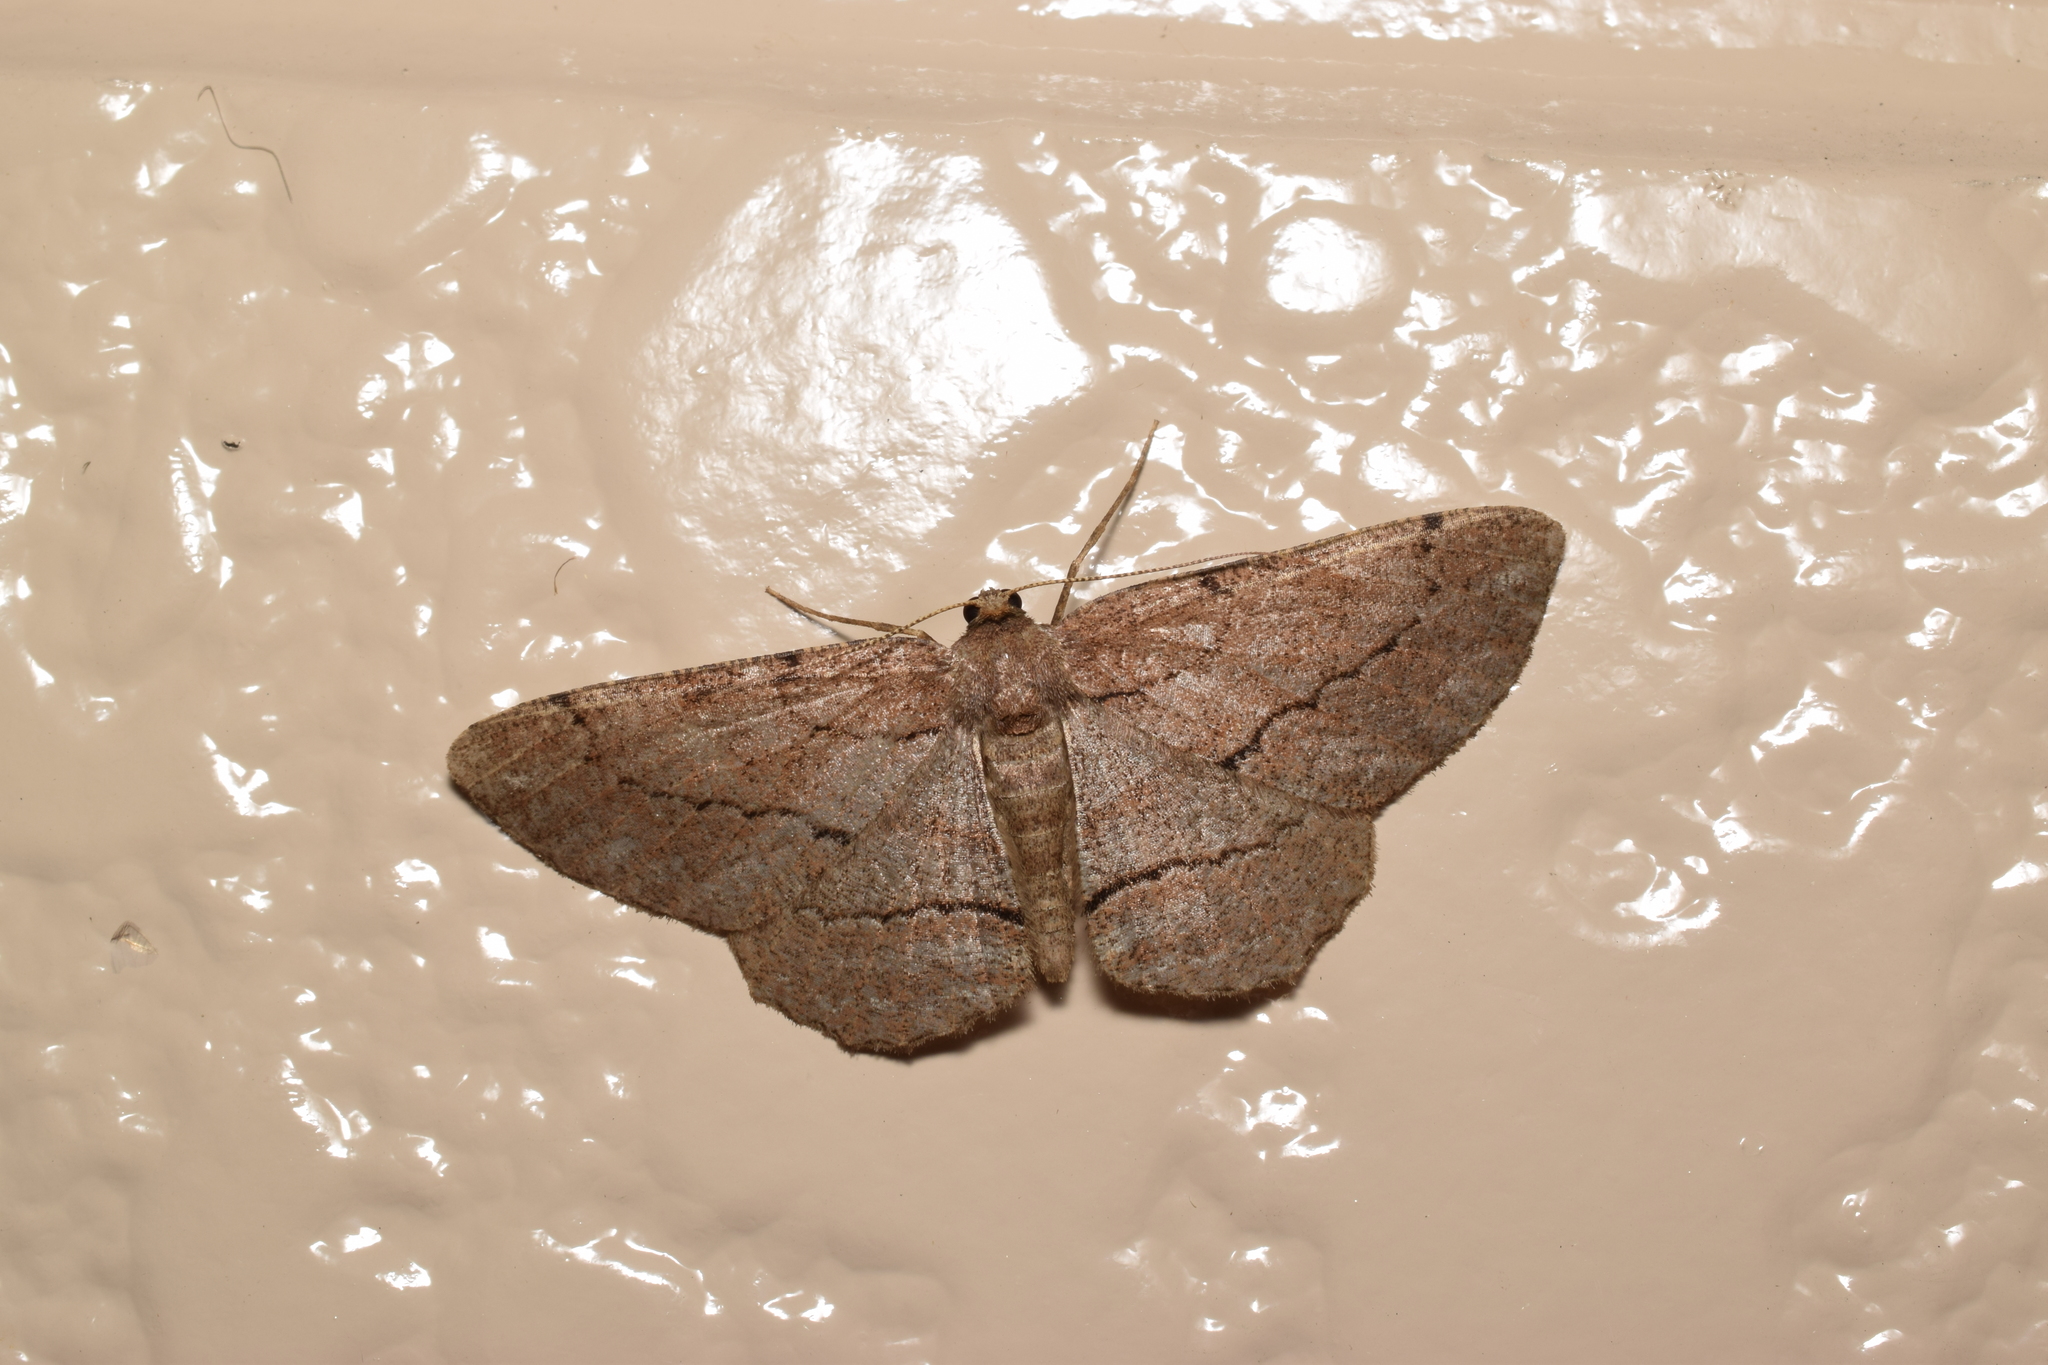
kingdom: Animalia
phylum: Arthropoda
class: Insecta
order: Lepidoptera
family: Geometridae
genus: Apocleora
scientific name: Apocleora rimosa
